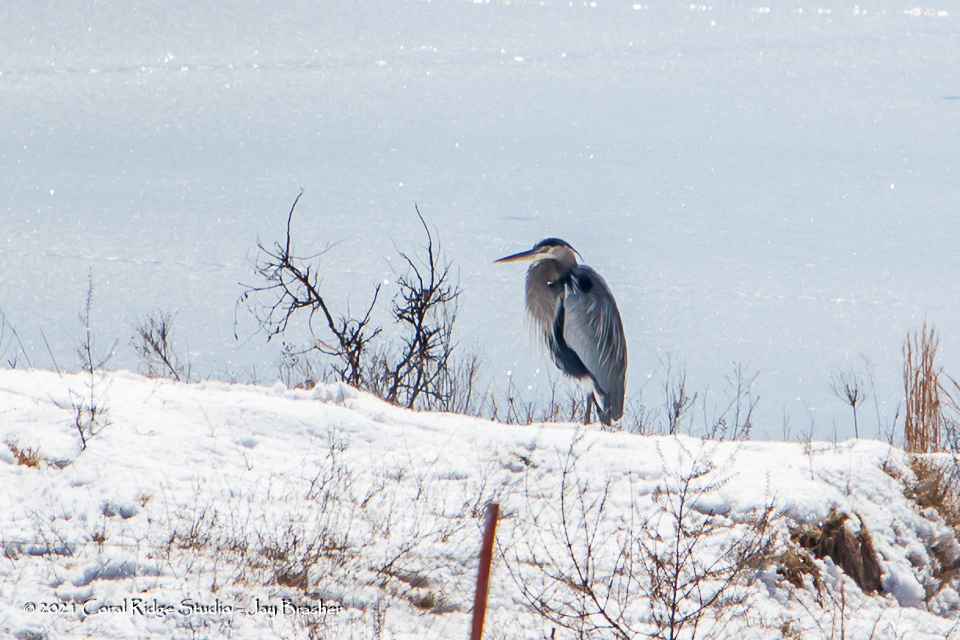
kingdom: Animalia
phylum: Chordata
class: Aves
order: Pelecaniformes
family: Ardeidae
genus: Ardea
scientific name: Ardea herodias
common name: Great blue heron
